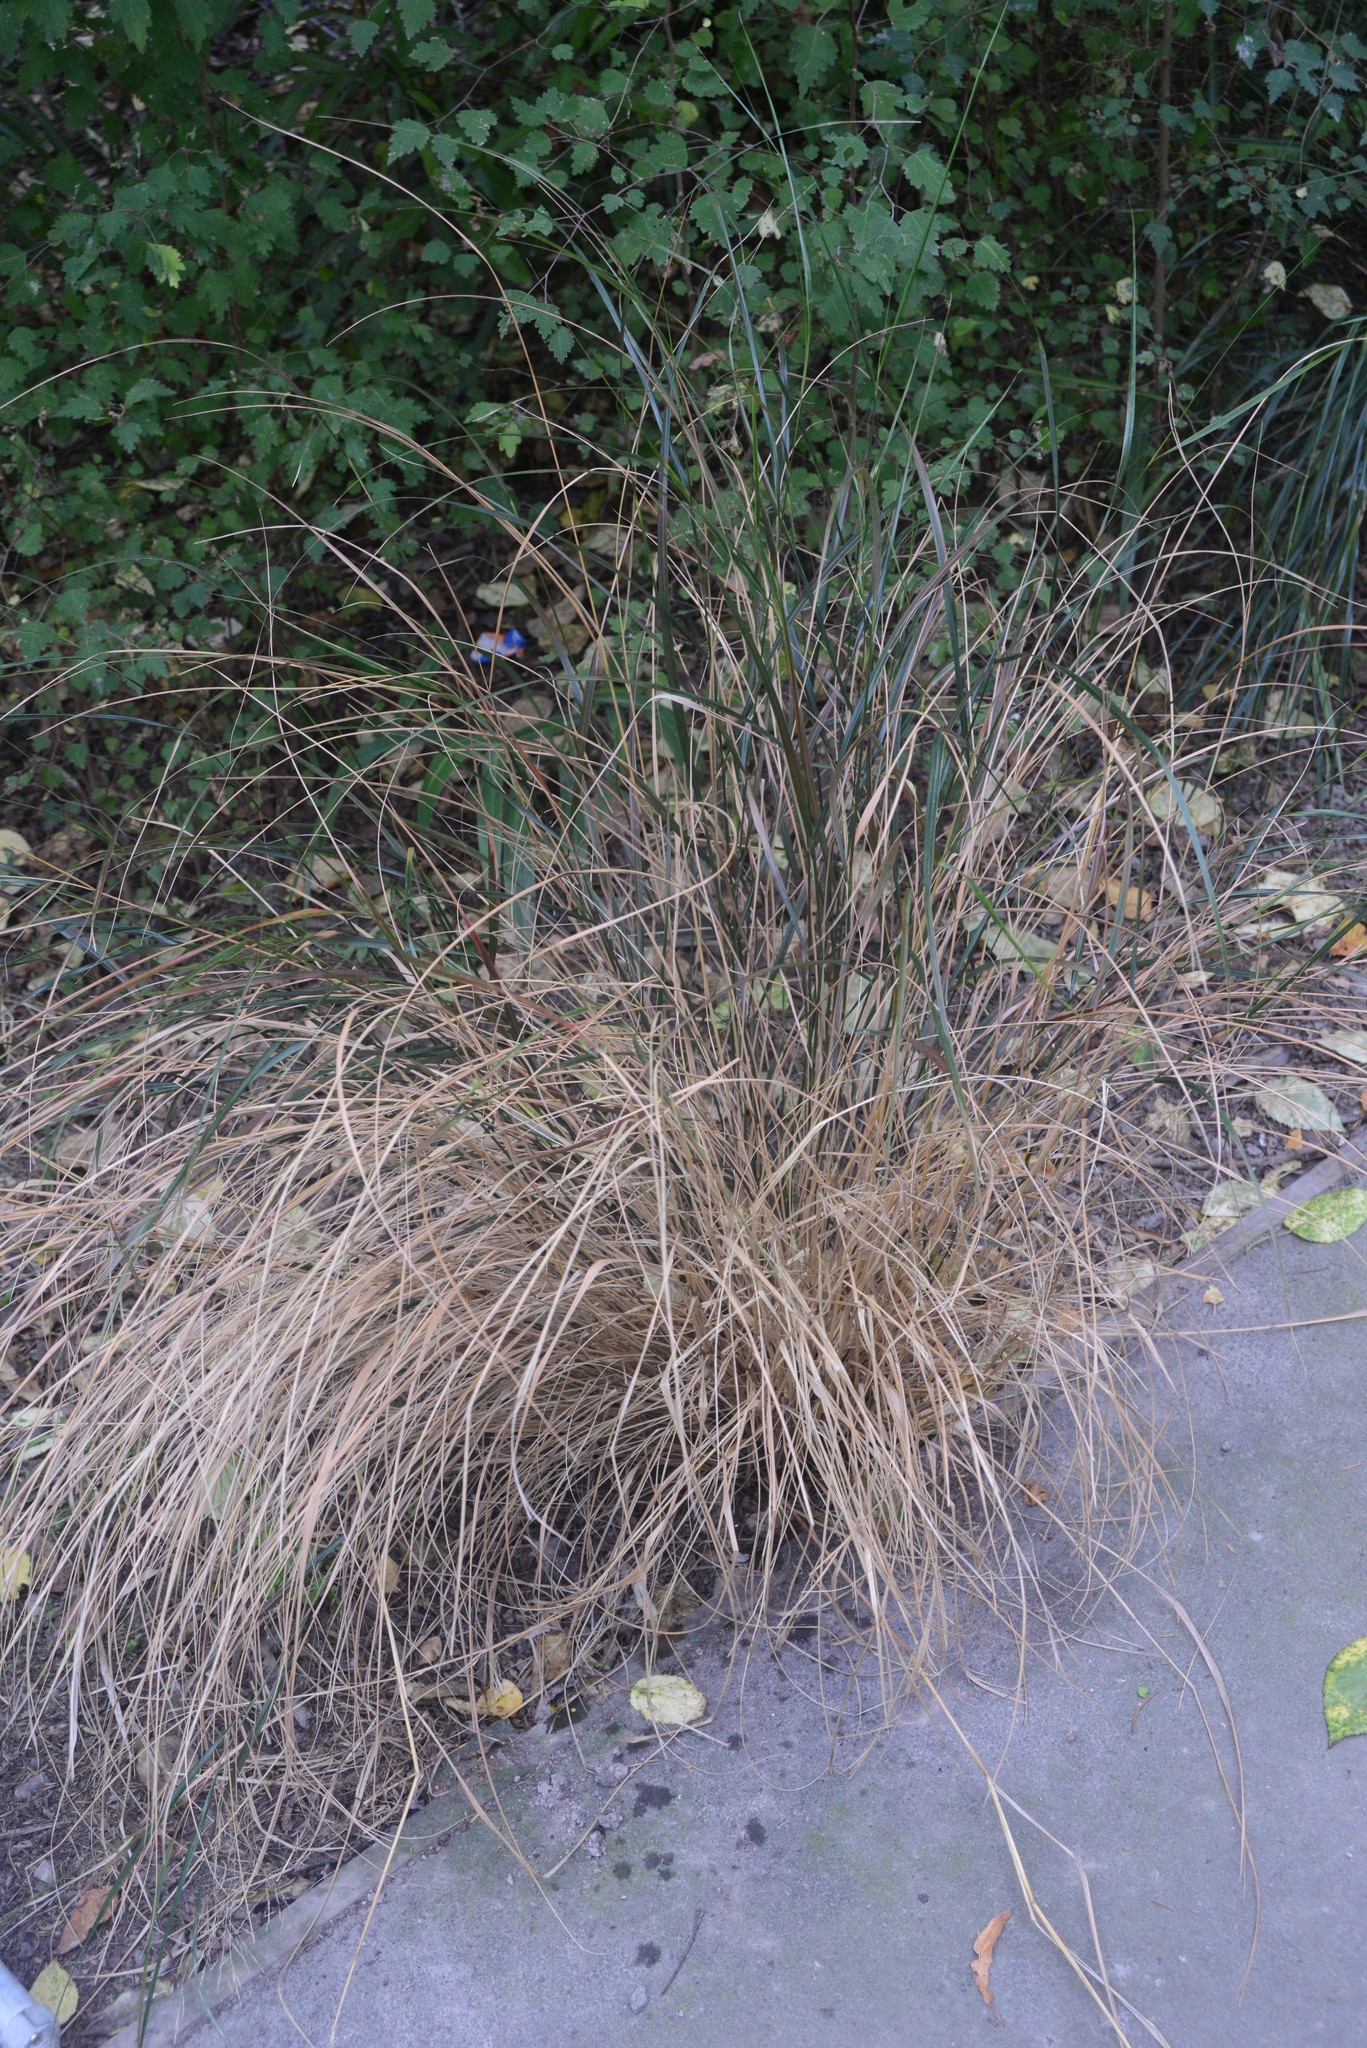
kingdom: Plantae
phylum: Tracheophyta
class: Liliopsida
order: Poales
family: Poaceae
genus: Anemanthele
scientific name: Anemanthele lessoniana
